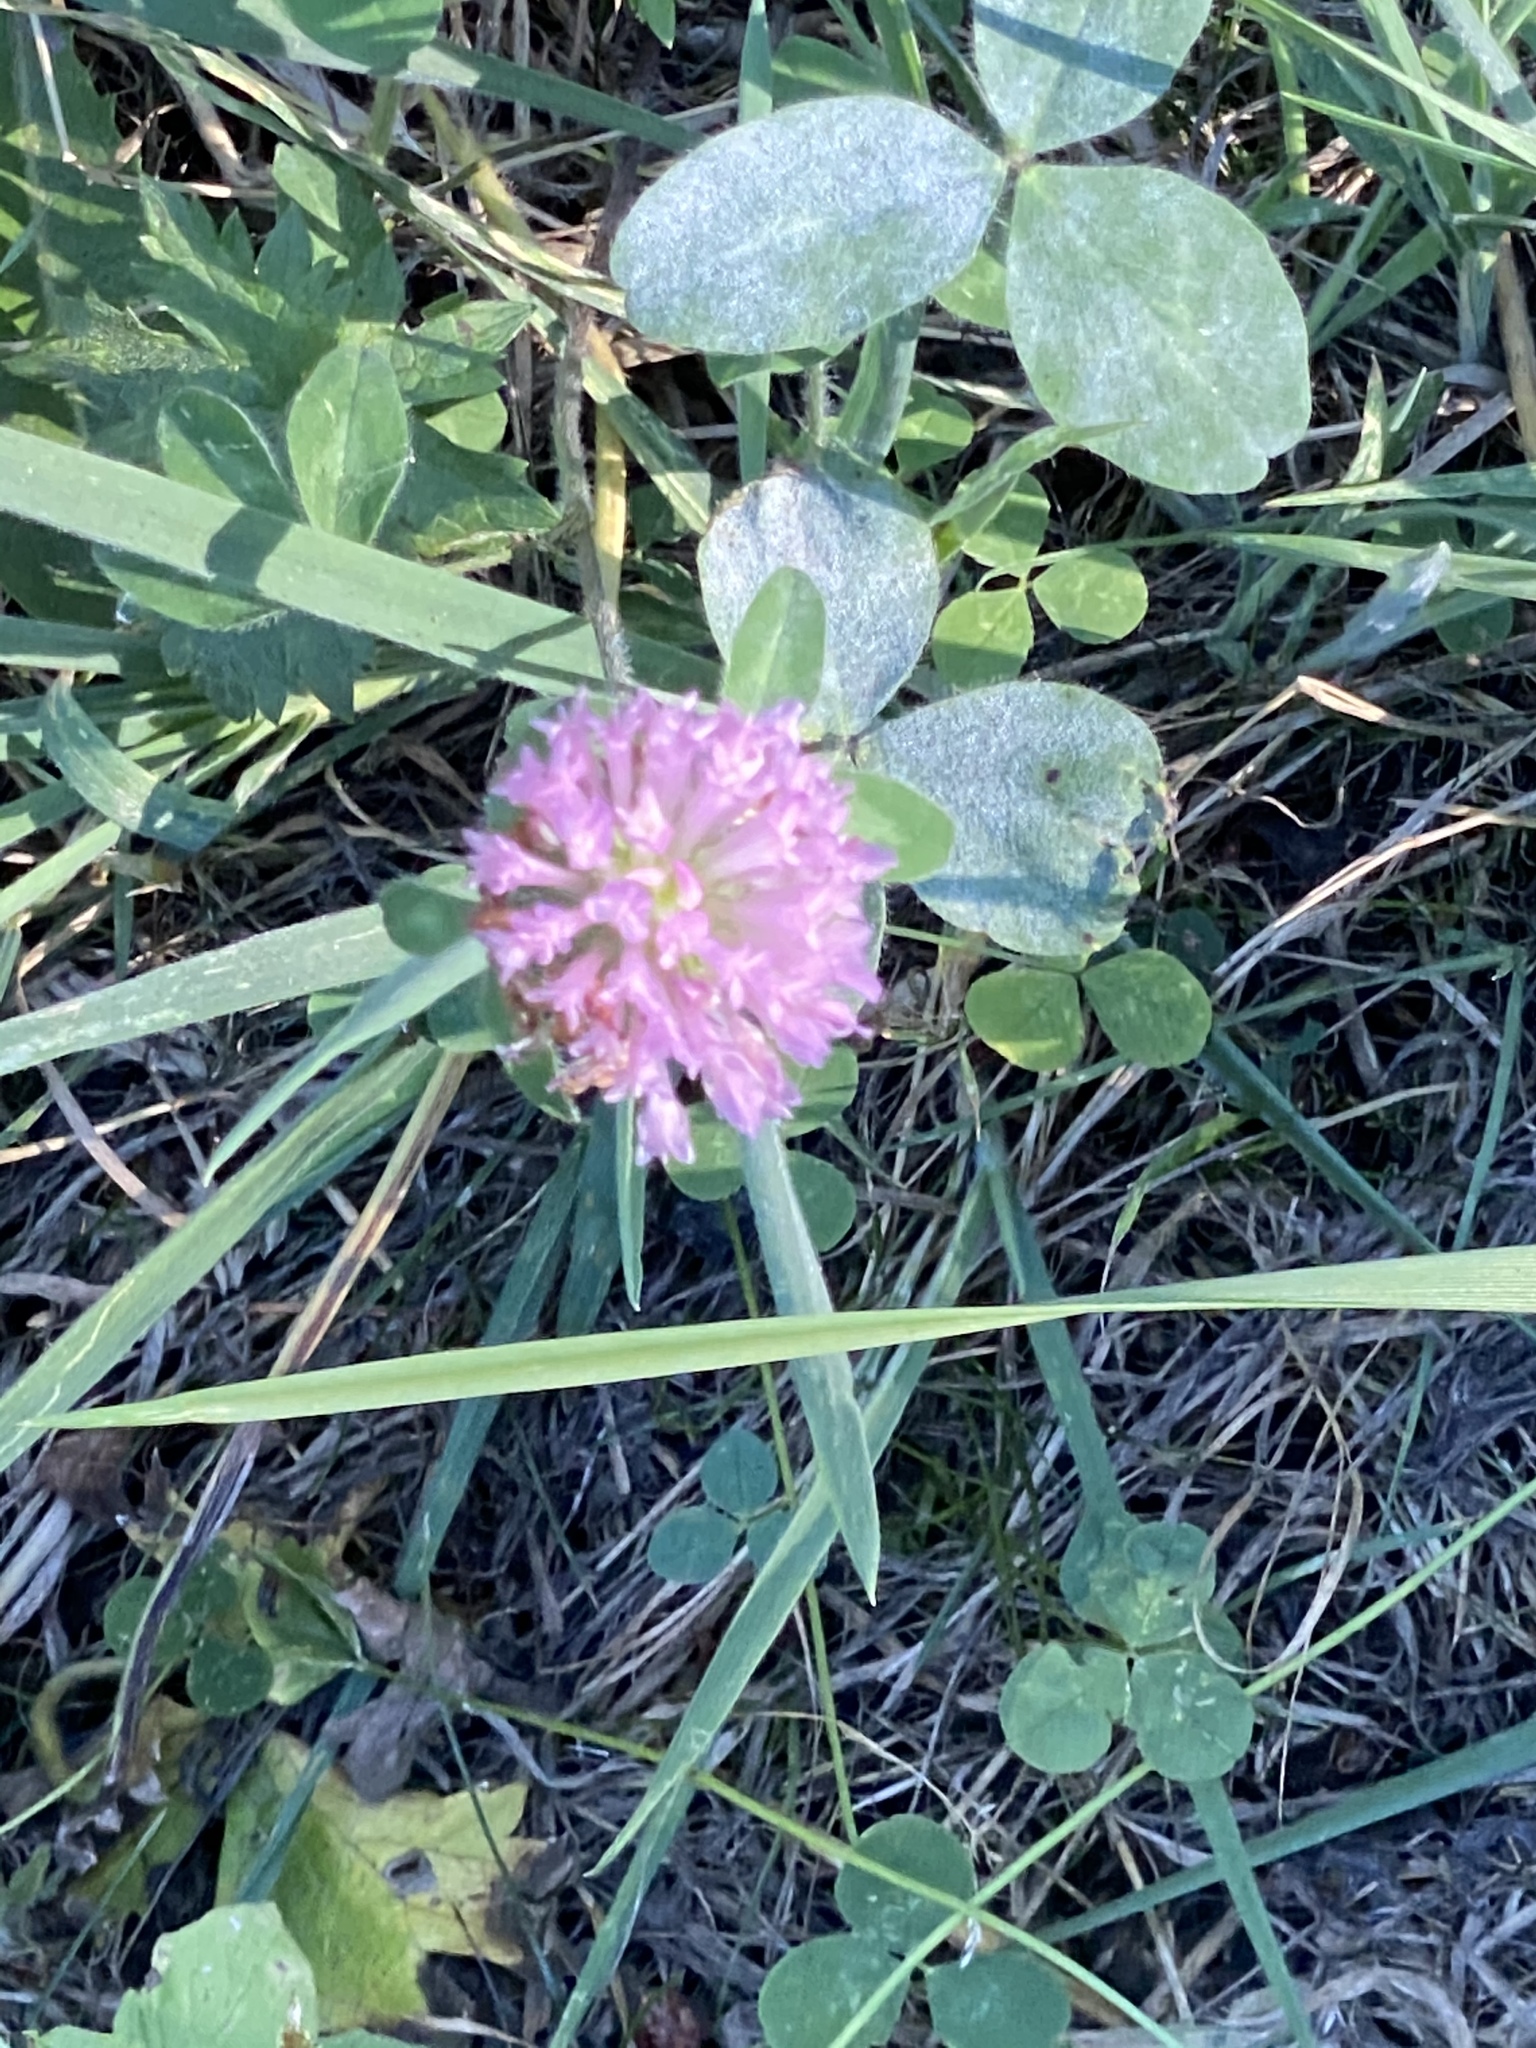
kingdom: Plantae
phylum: Tracheophyta
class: Magnoliopsida
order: Fabales
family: Fabaceae
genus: Trifolium
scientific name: Trifolium pratense
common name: Red clover
